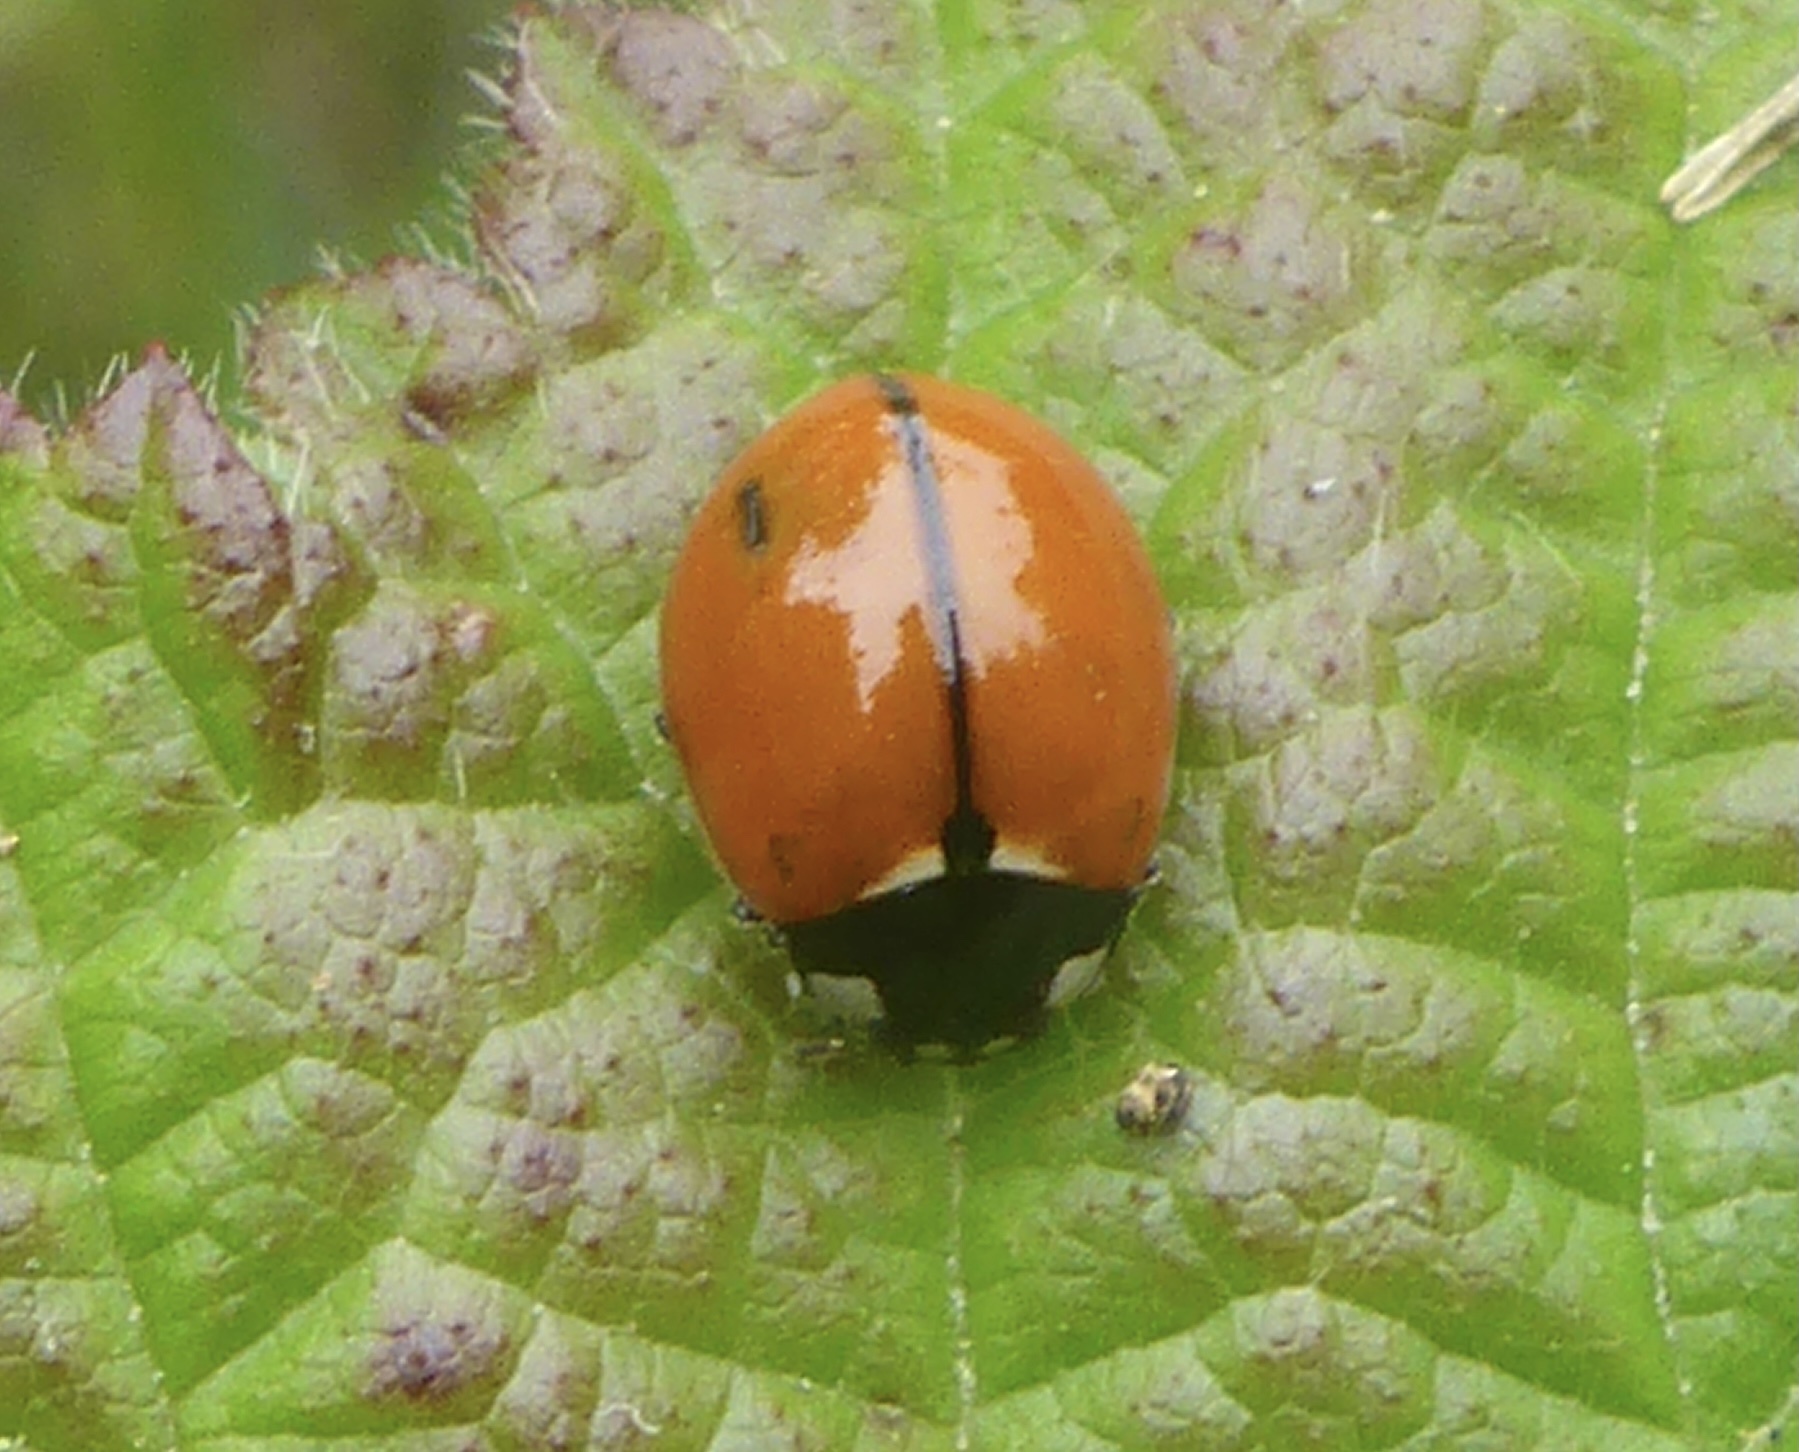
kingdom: Animalia
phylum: Arthropoda
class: Insecta
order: Coleoptera
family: Coccinellidae
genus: Coccinella
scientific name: Coccinella californica
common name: Lady beetle
